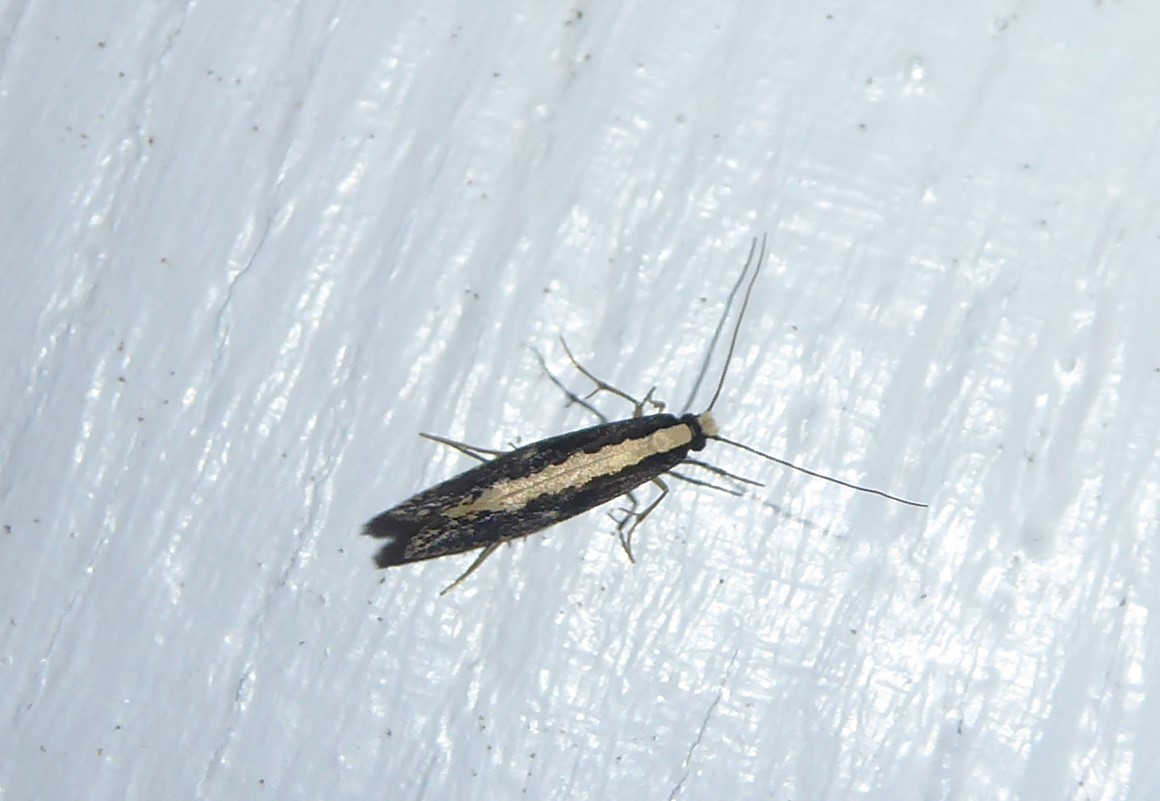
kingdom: Animalia
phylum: Arthropoda
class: Insecta
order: Lepidoptera
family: Tineidae
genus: Monopis
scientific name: Monopis ethelella
